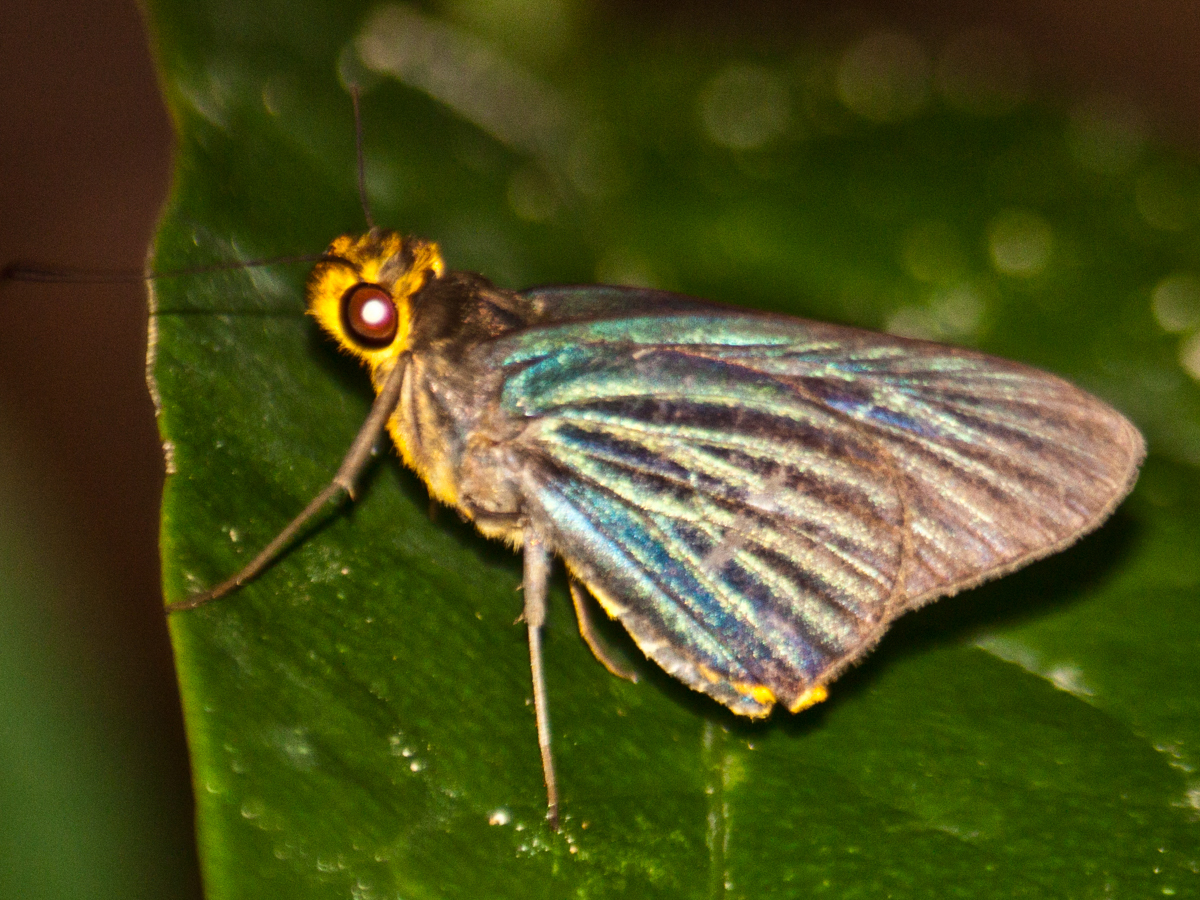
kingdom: Animalia
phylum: Arthropoda
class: Insecta
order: Lepidoptera
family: Hesperiidae
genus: Pirdana
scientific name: Pirdana hyela
